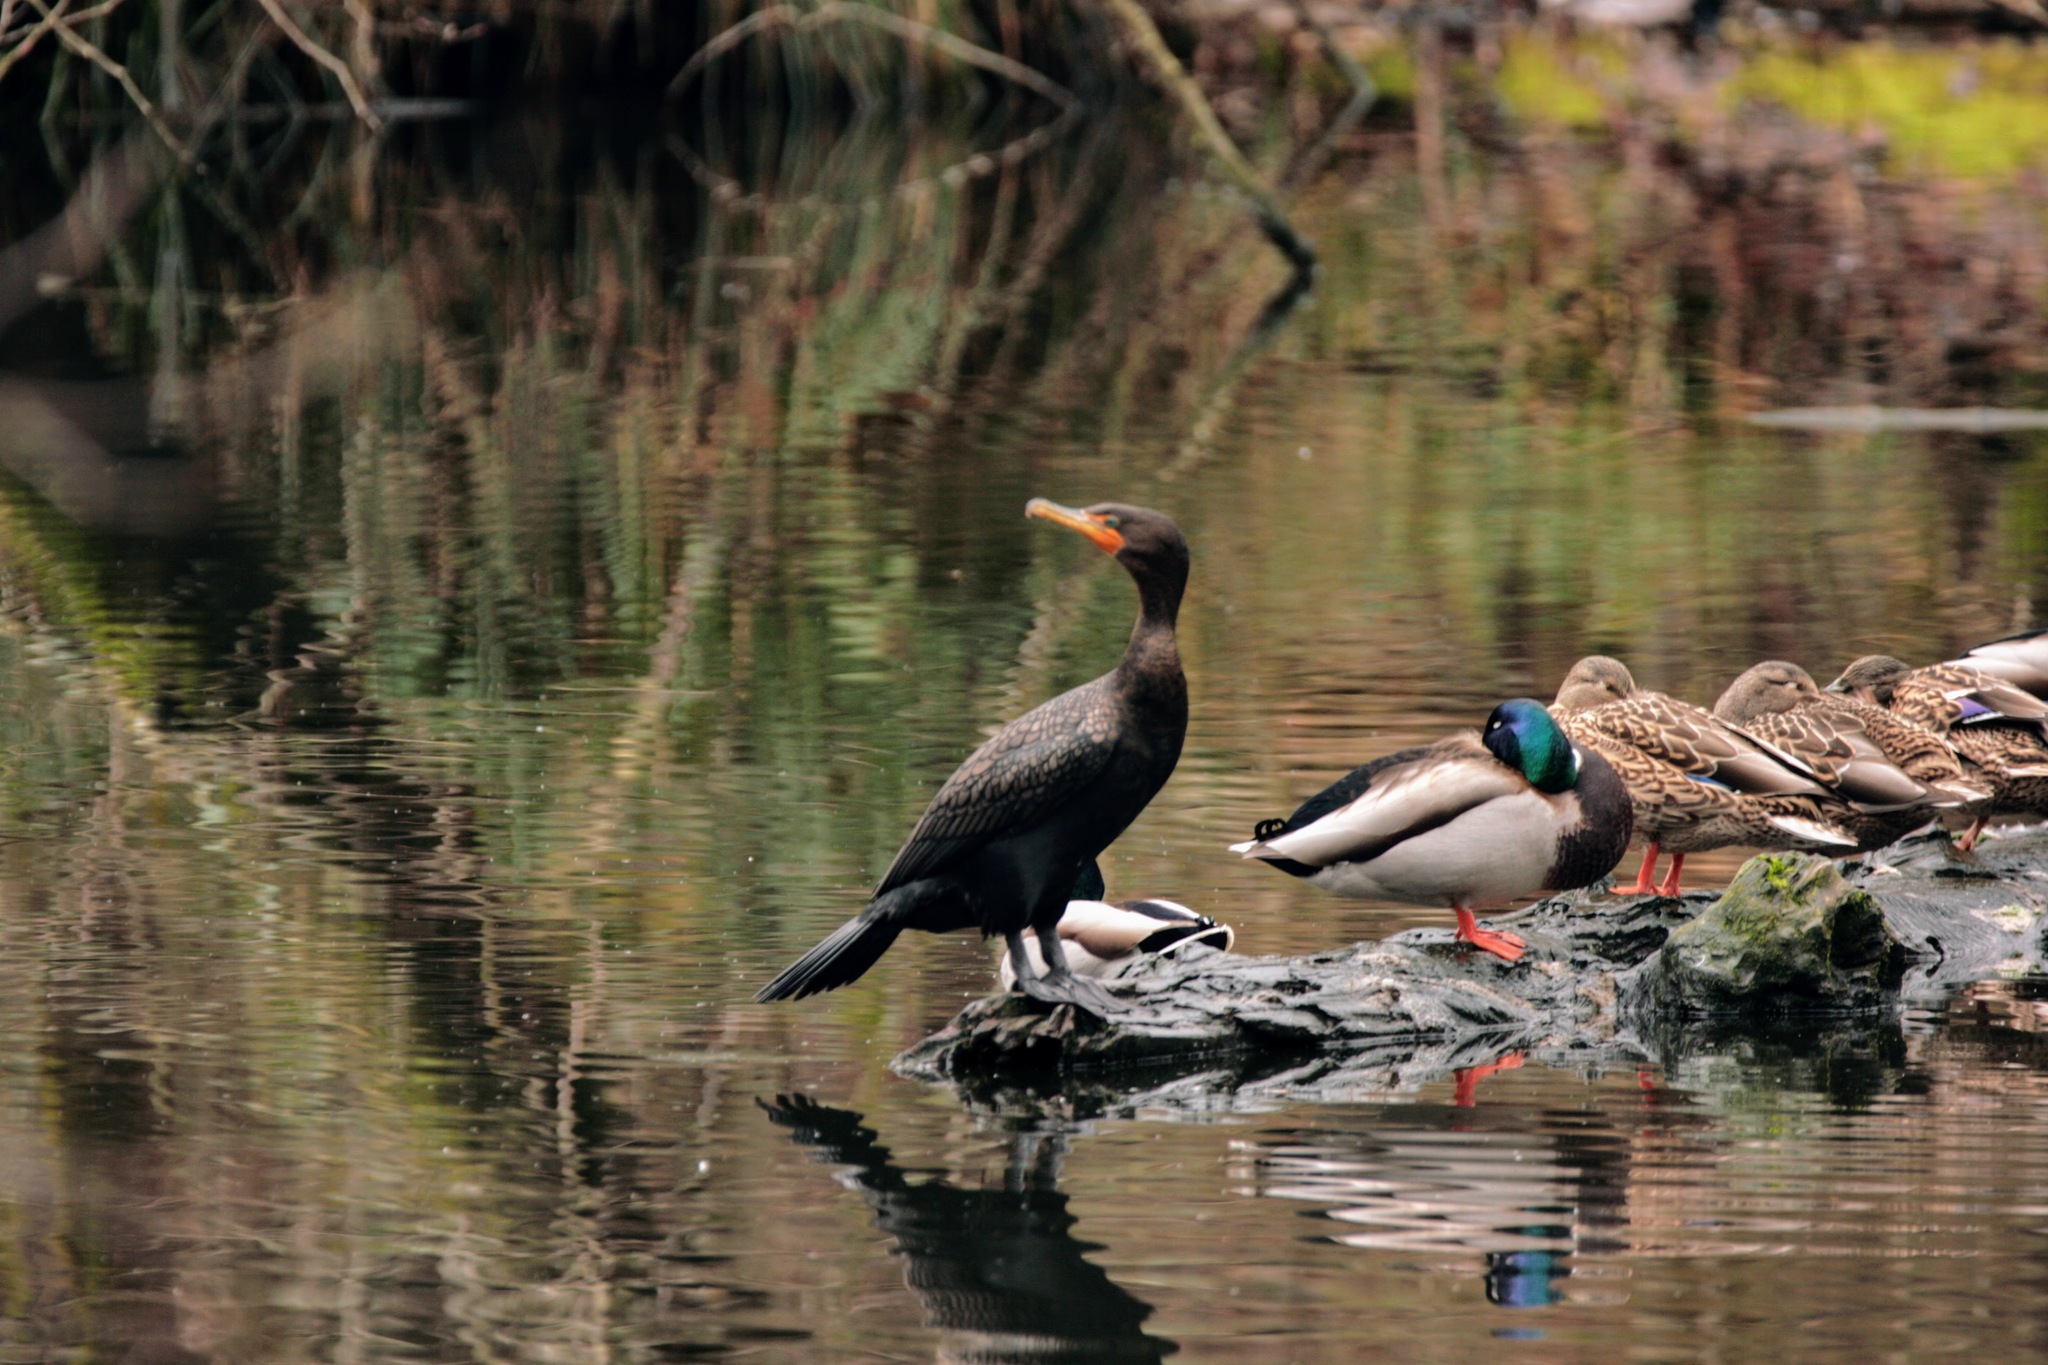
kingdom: Animalia
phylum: Chordata
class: Aves
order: Suliformes
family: Phalacrocoracidae
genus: Phalacrocorax
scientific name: Phalacrocorax auritus
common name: Double-crested cormorant
